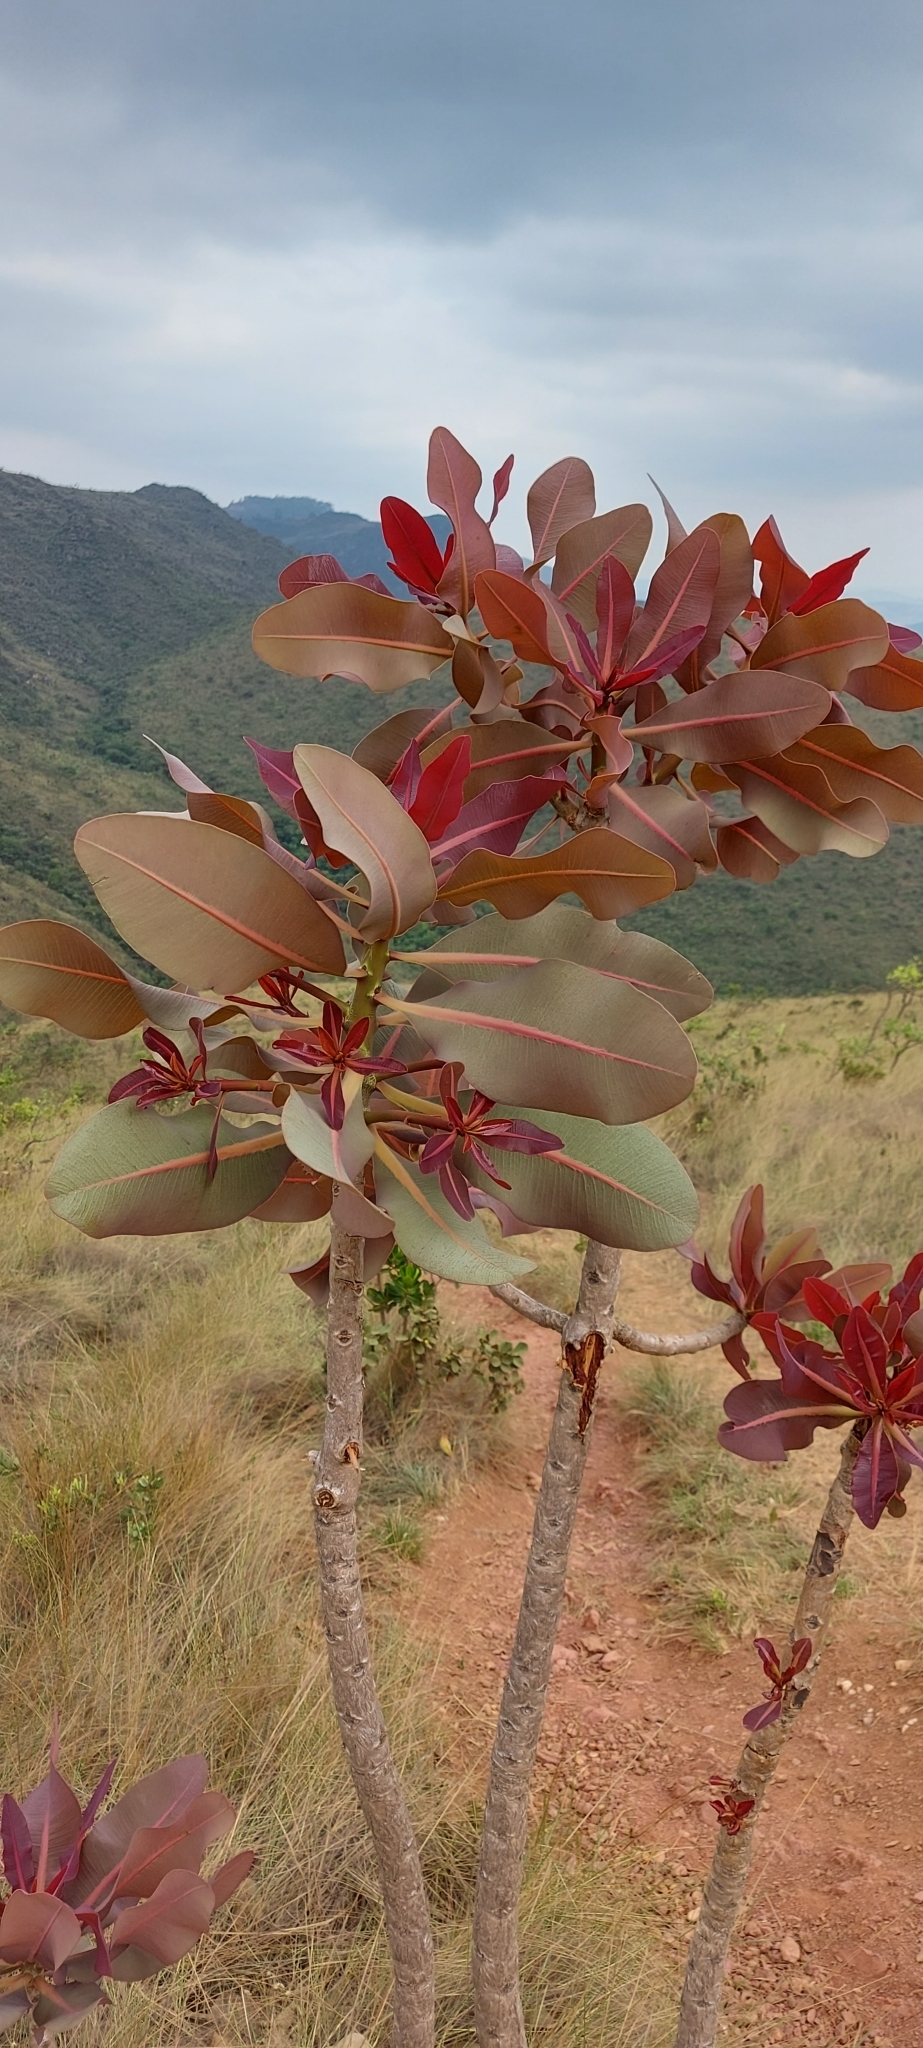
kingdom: Plantae
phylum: Tracheophyta
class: Magnoliopsida
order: Malpighiales
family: Calophyllaceae
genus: Kielmeyera
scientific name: Kielmeyera coriacea
